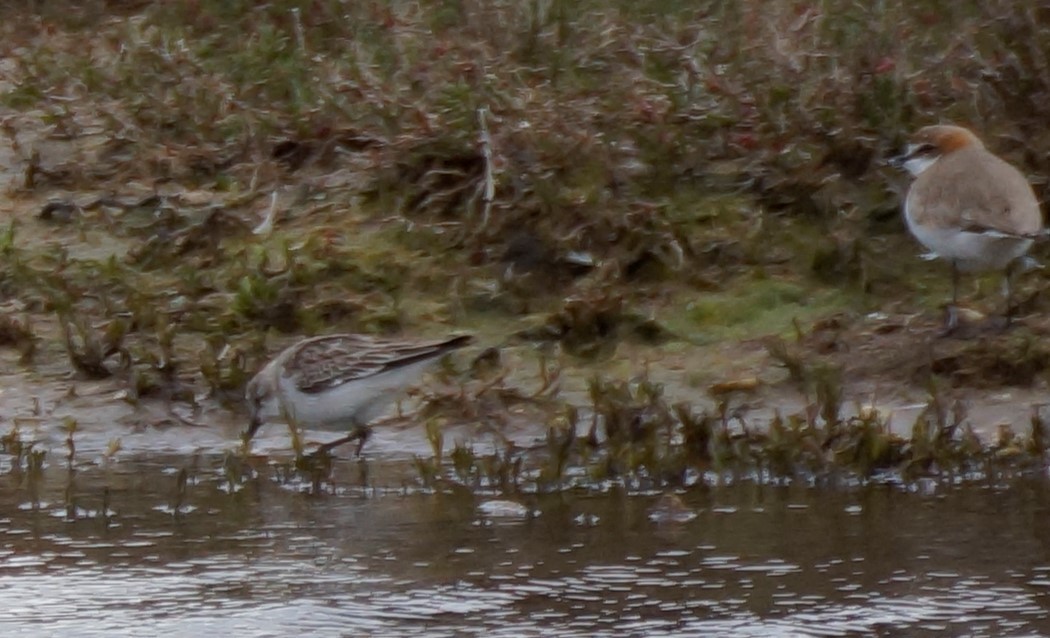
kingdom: Animalia
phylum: Chordata
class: Aves
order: Charadriiformes
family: Scolopacidae
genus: Calidris
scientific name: Calidris ruficollis
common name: Red-necked stint
